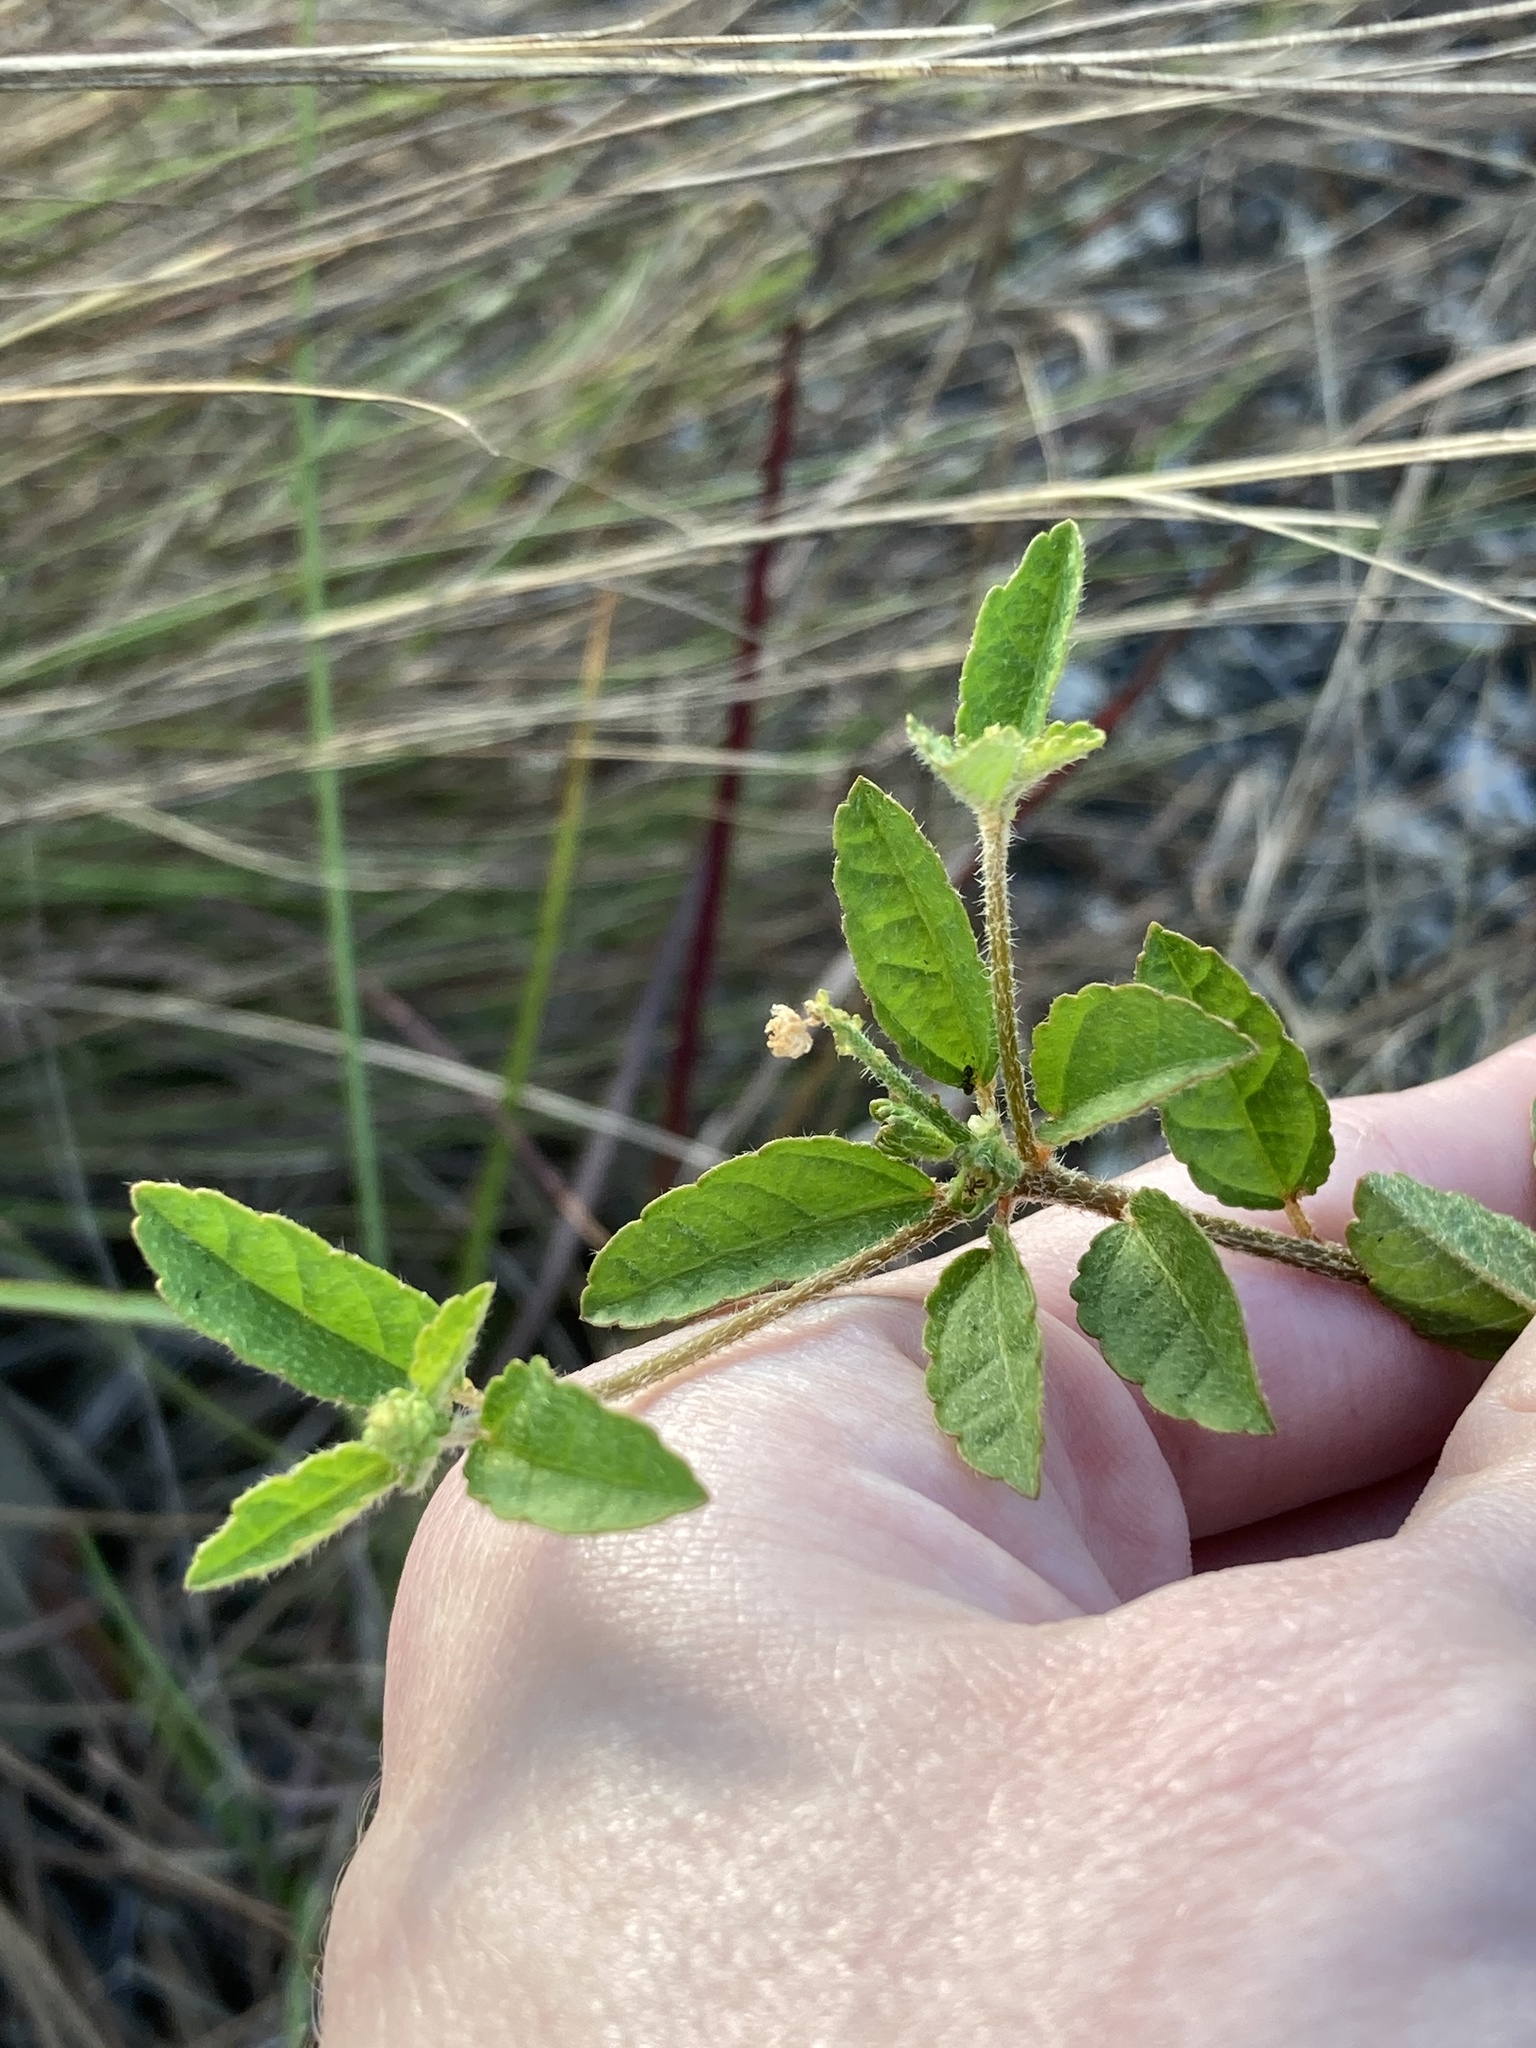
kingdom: Plantae
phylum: Tracheophyta
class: Magnoliopsida
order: Malpighiales
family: Euphorbiaceae
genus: Croton
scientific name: Croton glandulosus
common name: Tropic croton
